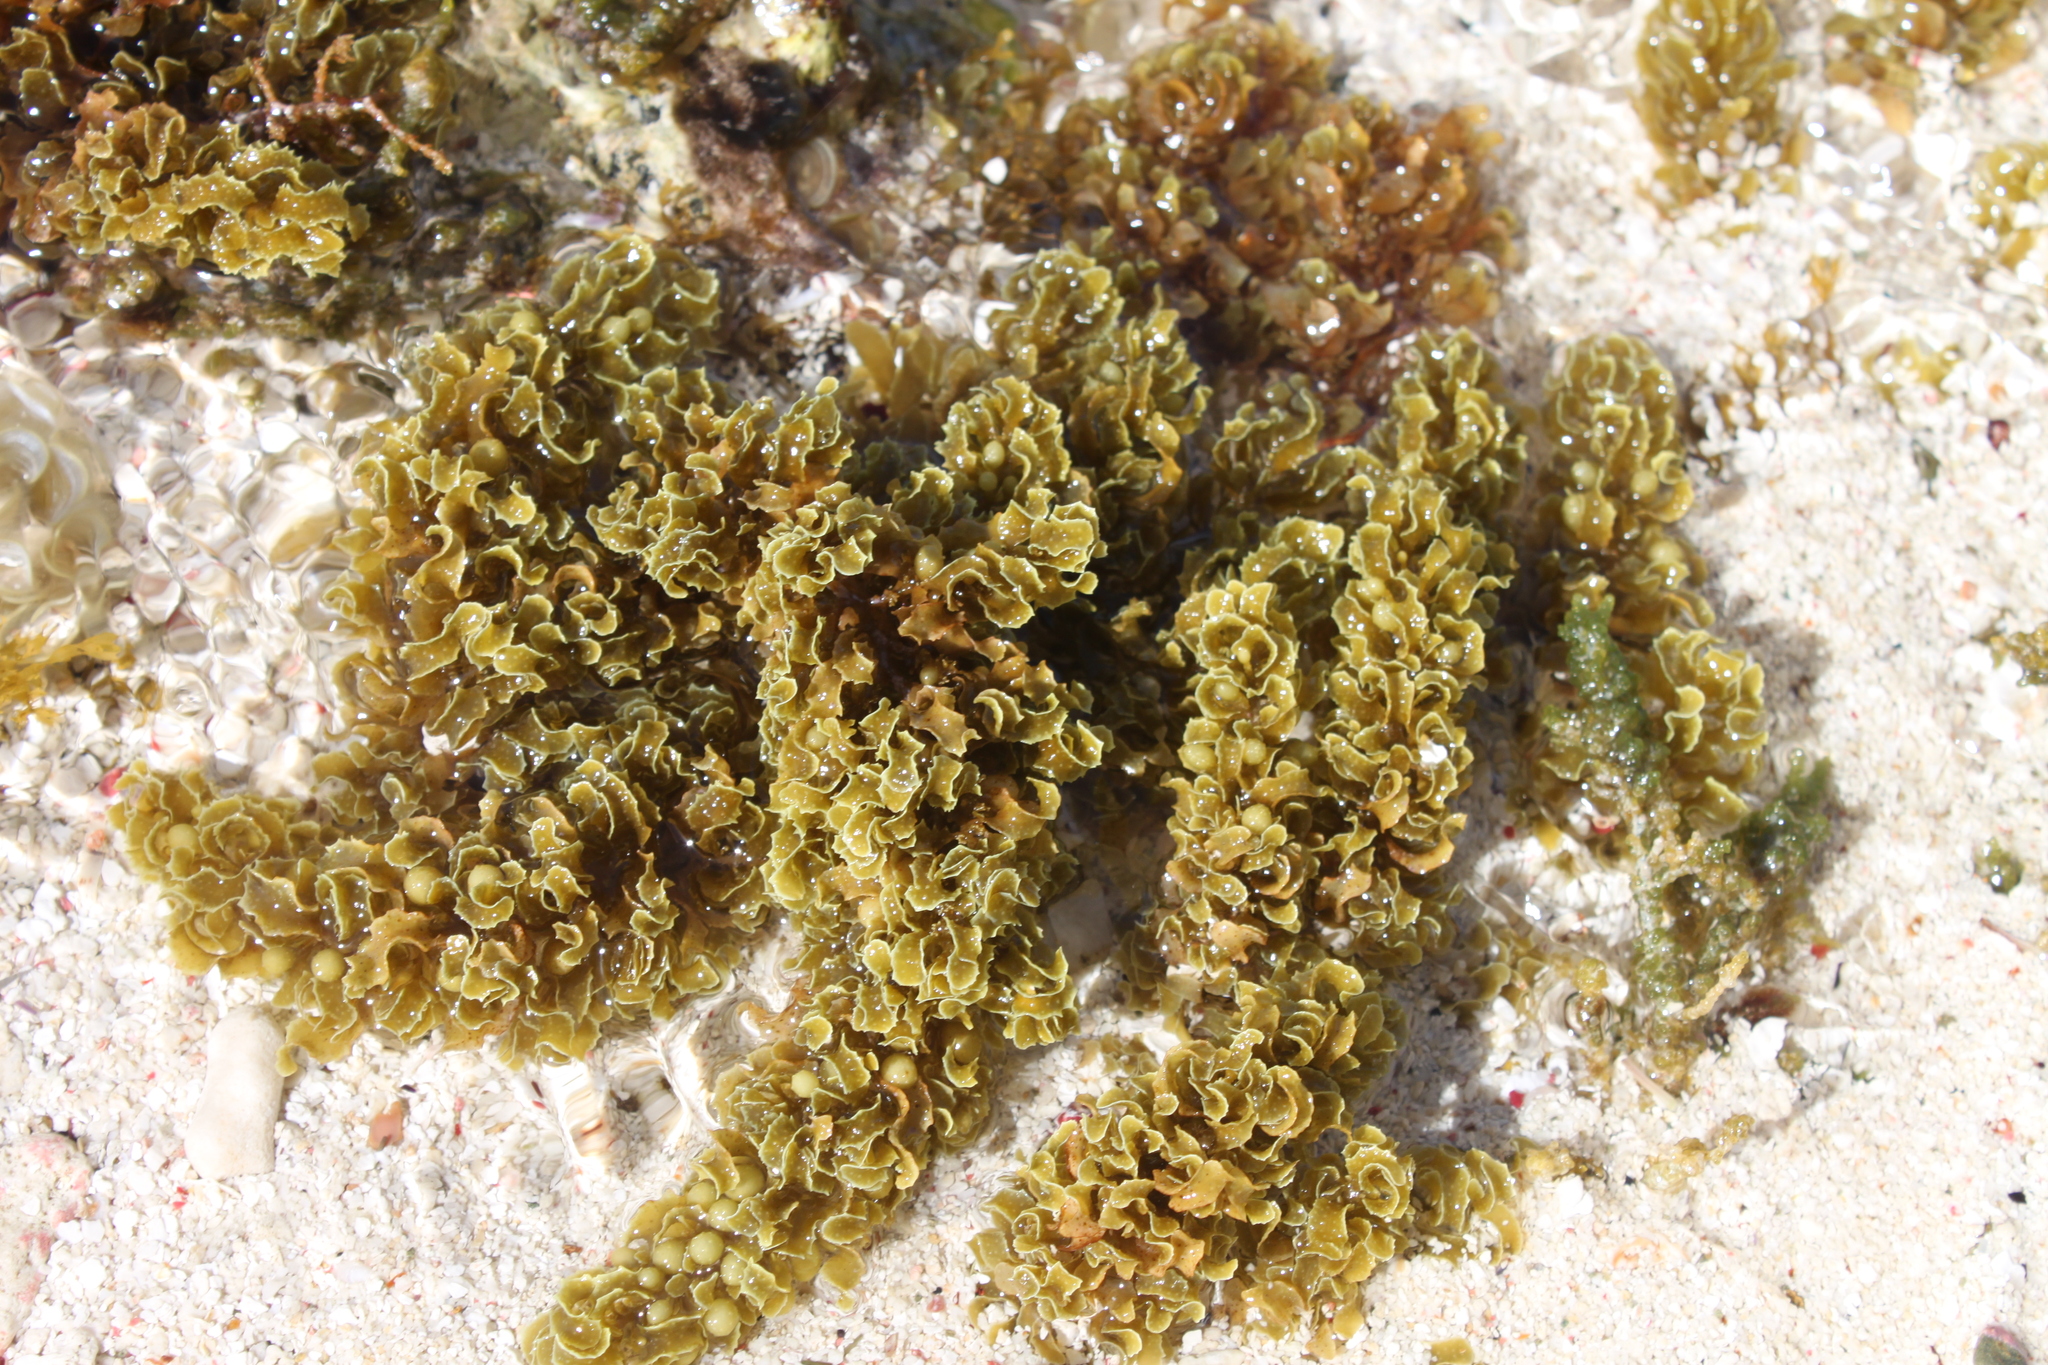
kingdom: Chromista
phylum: Ochrophyta
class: Phaeophyceae
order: Fucales
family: Sargassaceae
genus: Sargassum
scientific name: Sargassum polyceratium
